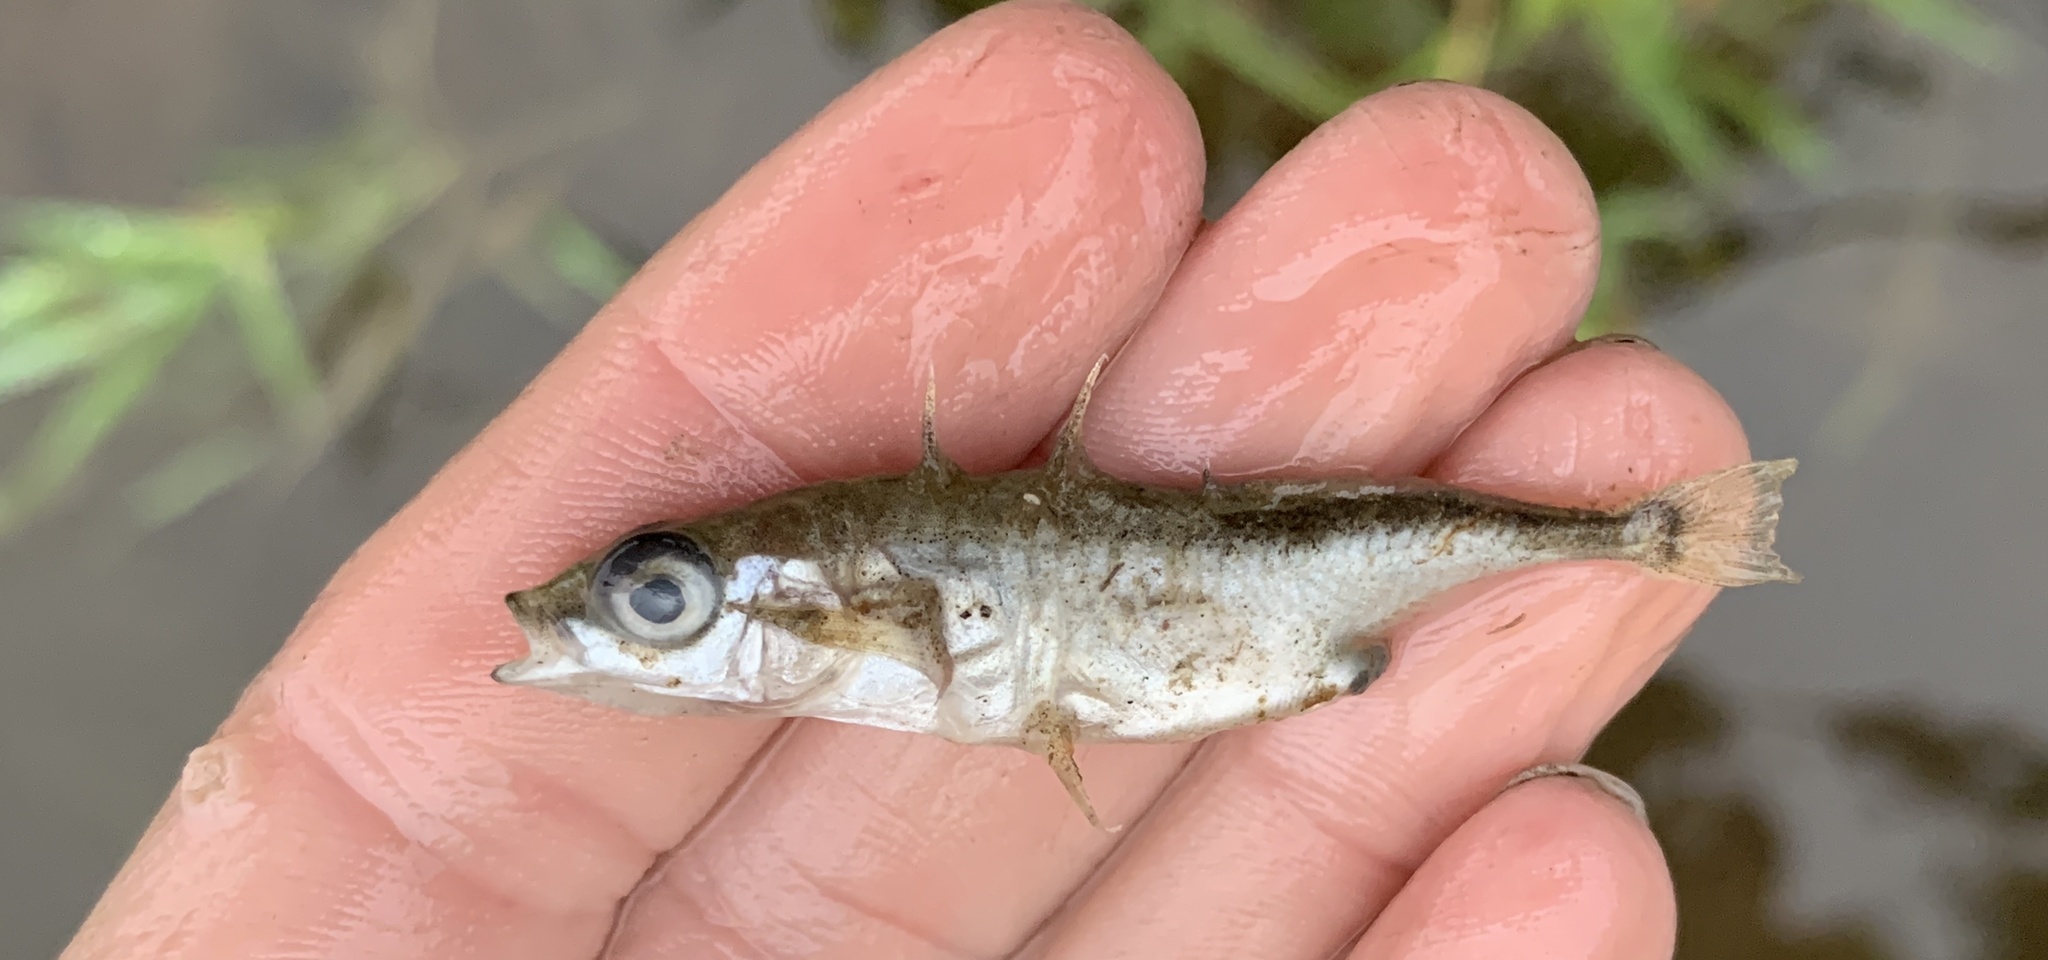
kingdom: Animalia
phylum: Chordata
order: Gasterosteiformes
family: Gasterosteidae
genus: Gasterosteus
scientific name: Gasterosteus aculeatus
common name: Three-spined stickleback
